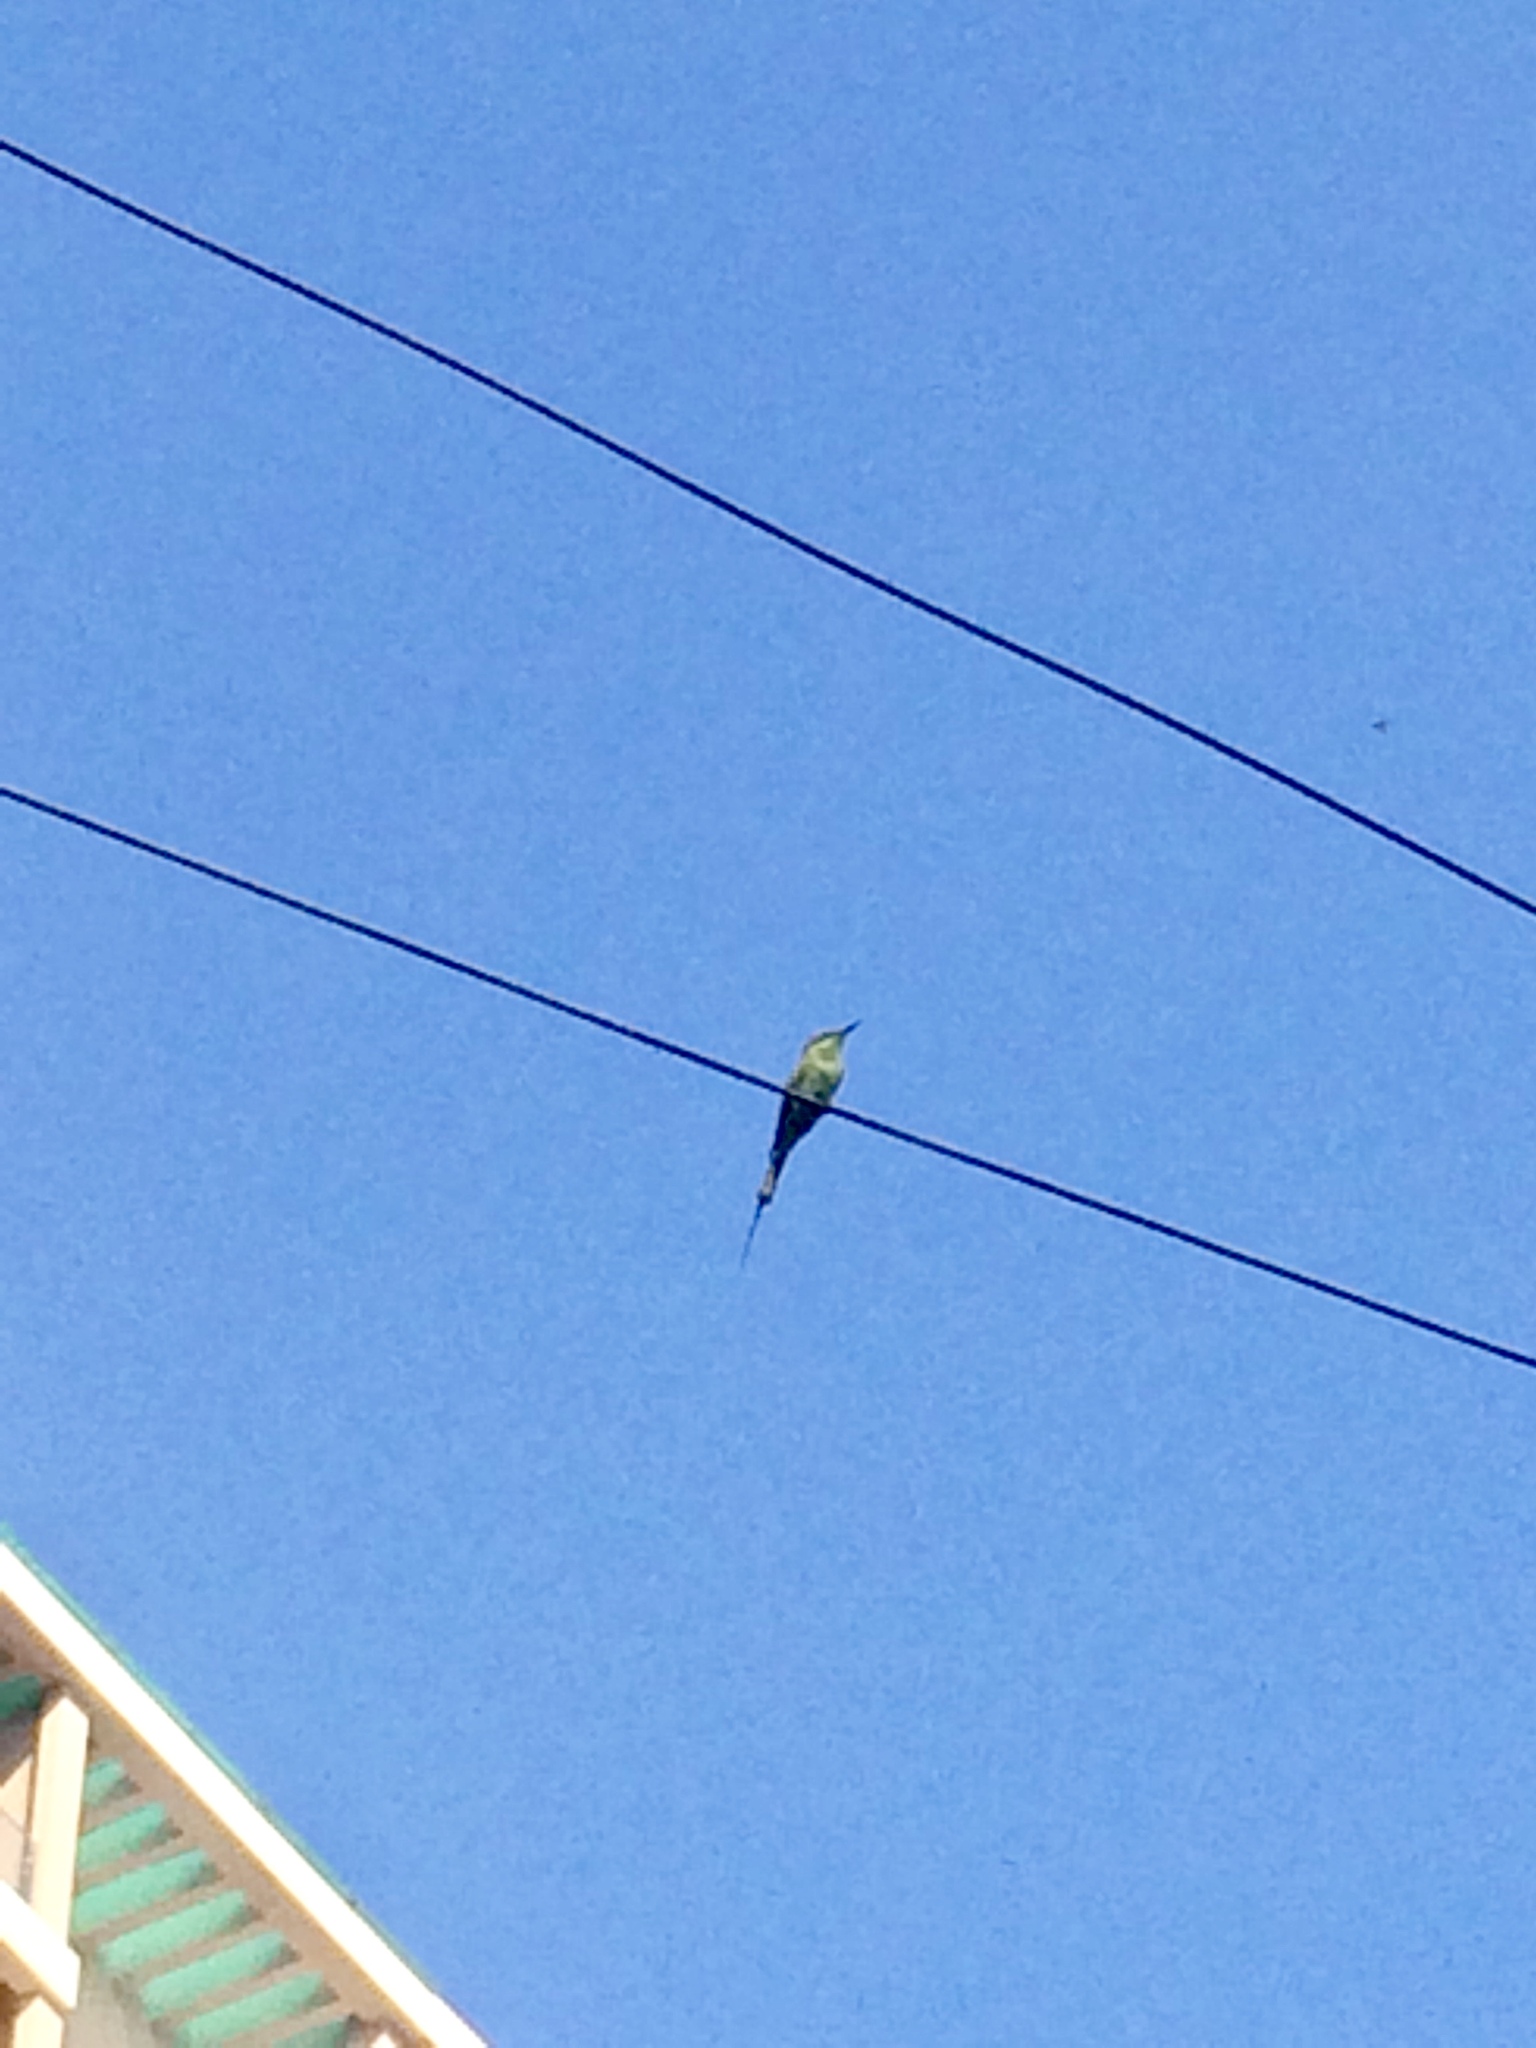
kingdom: Animalia
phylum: Chordata
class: Aves
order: Coraciiformes
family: Meropidae
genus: Merops
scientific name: Merops orientalis
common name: Green bee-eater
